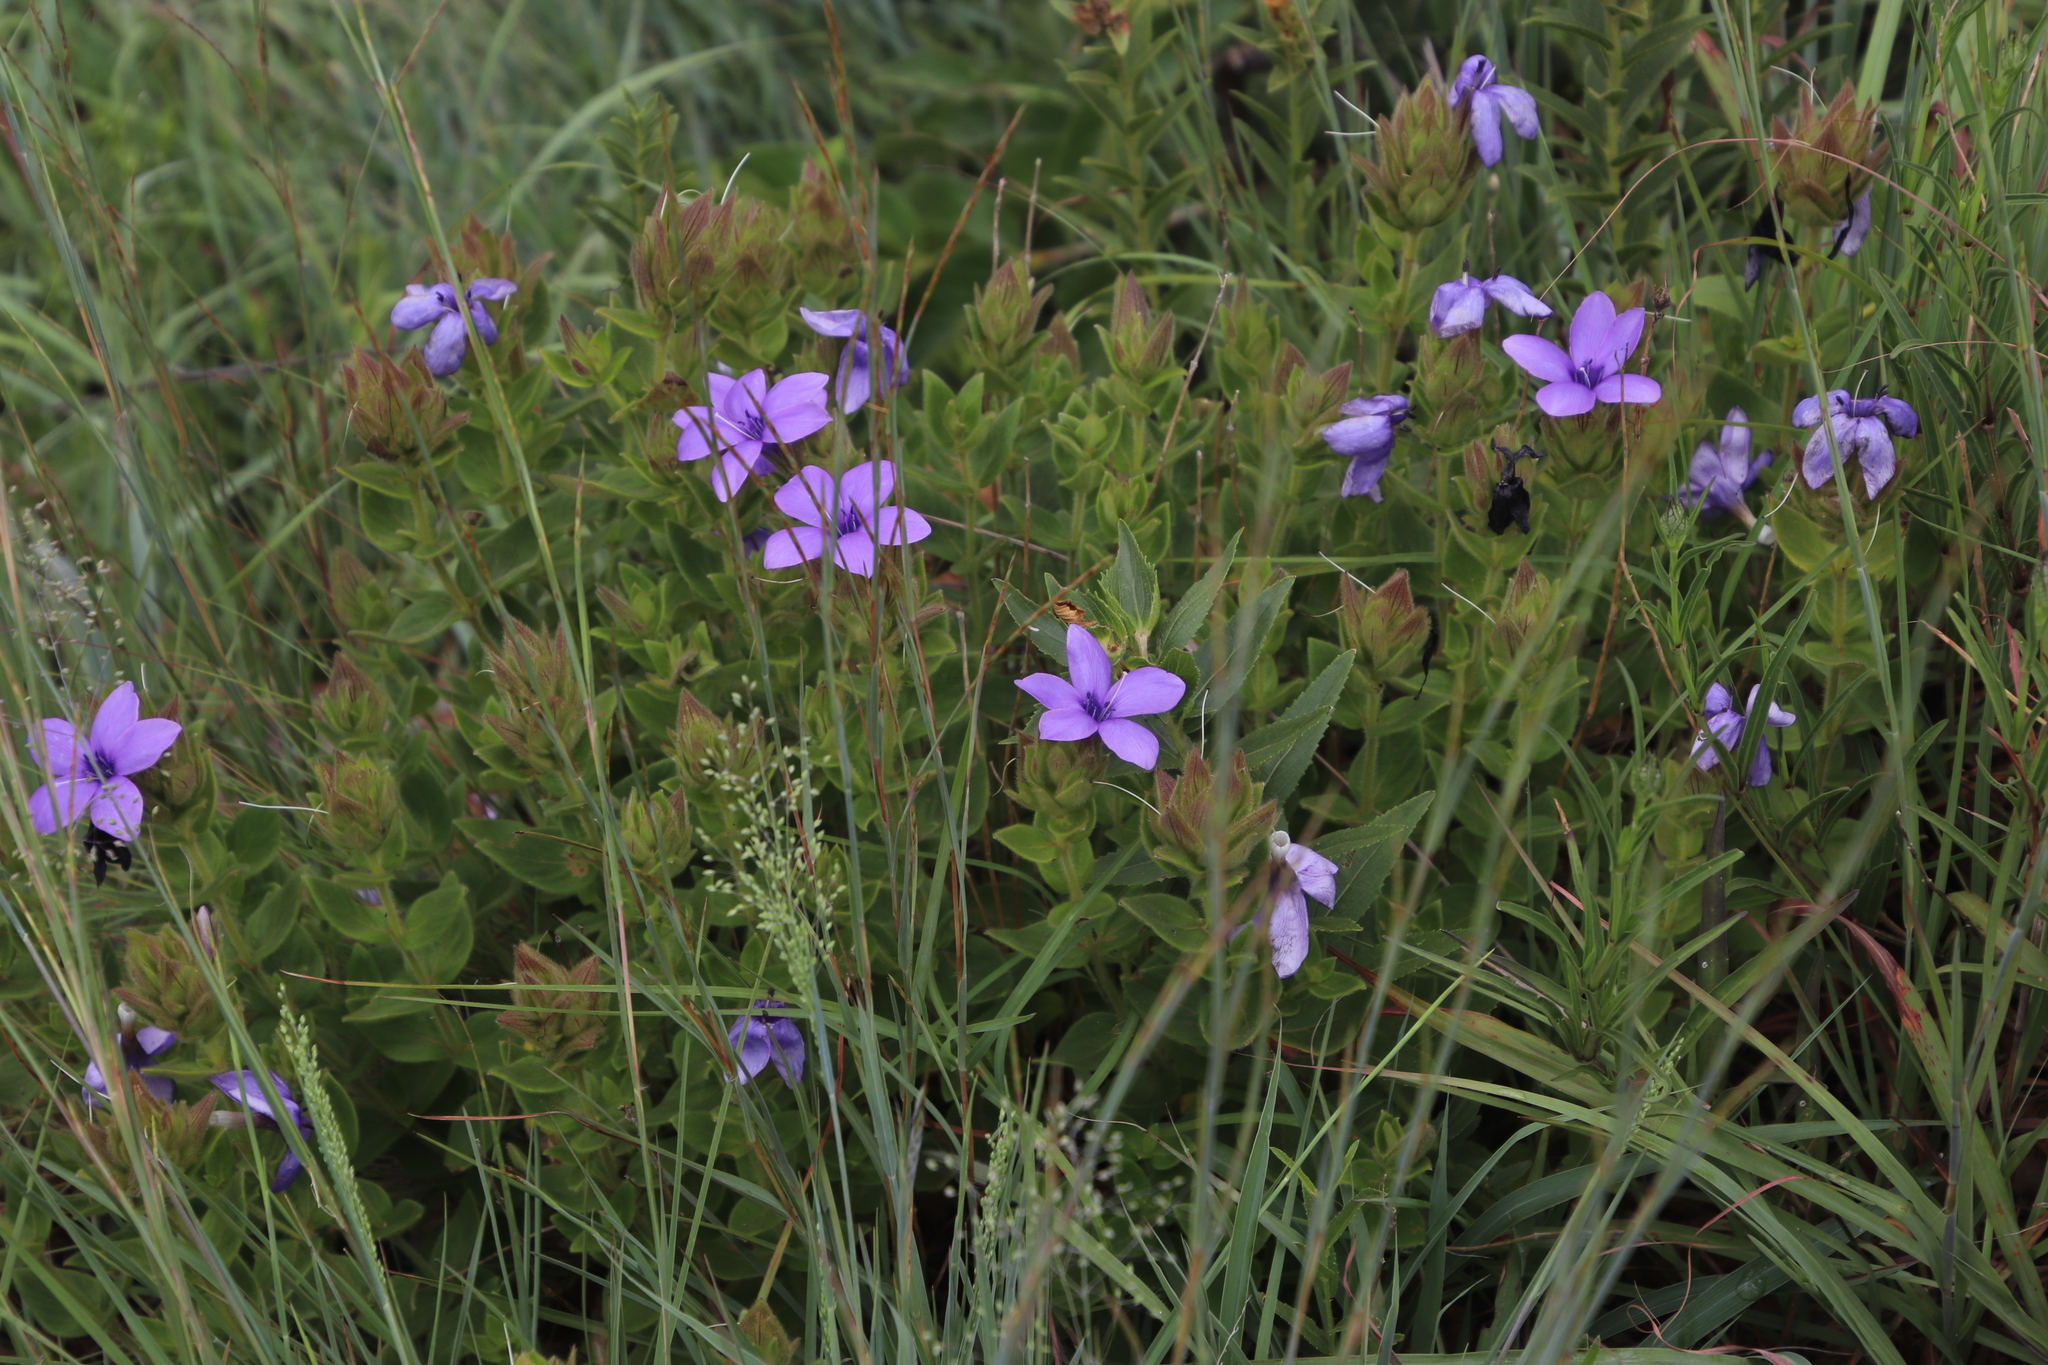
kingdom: Plantae
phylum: Tracheophyta
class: Magnoliopsida
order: Lamiales
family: Acanthaceae
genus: Barleria
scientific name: Barleria ovata
